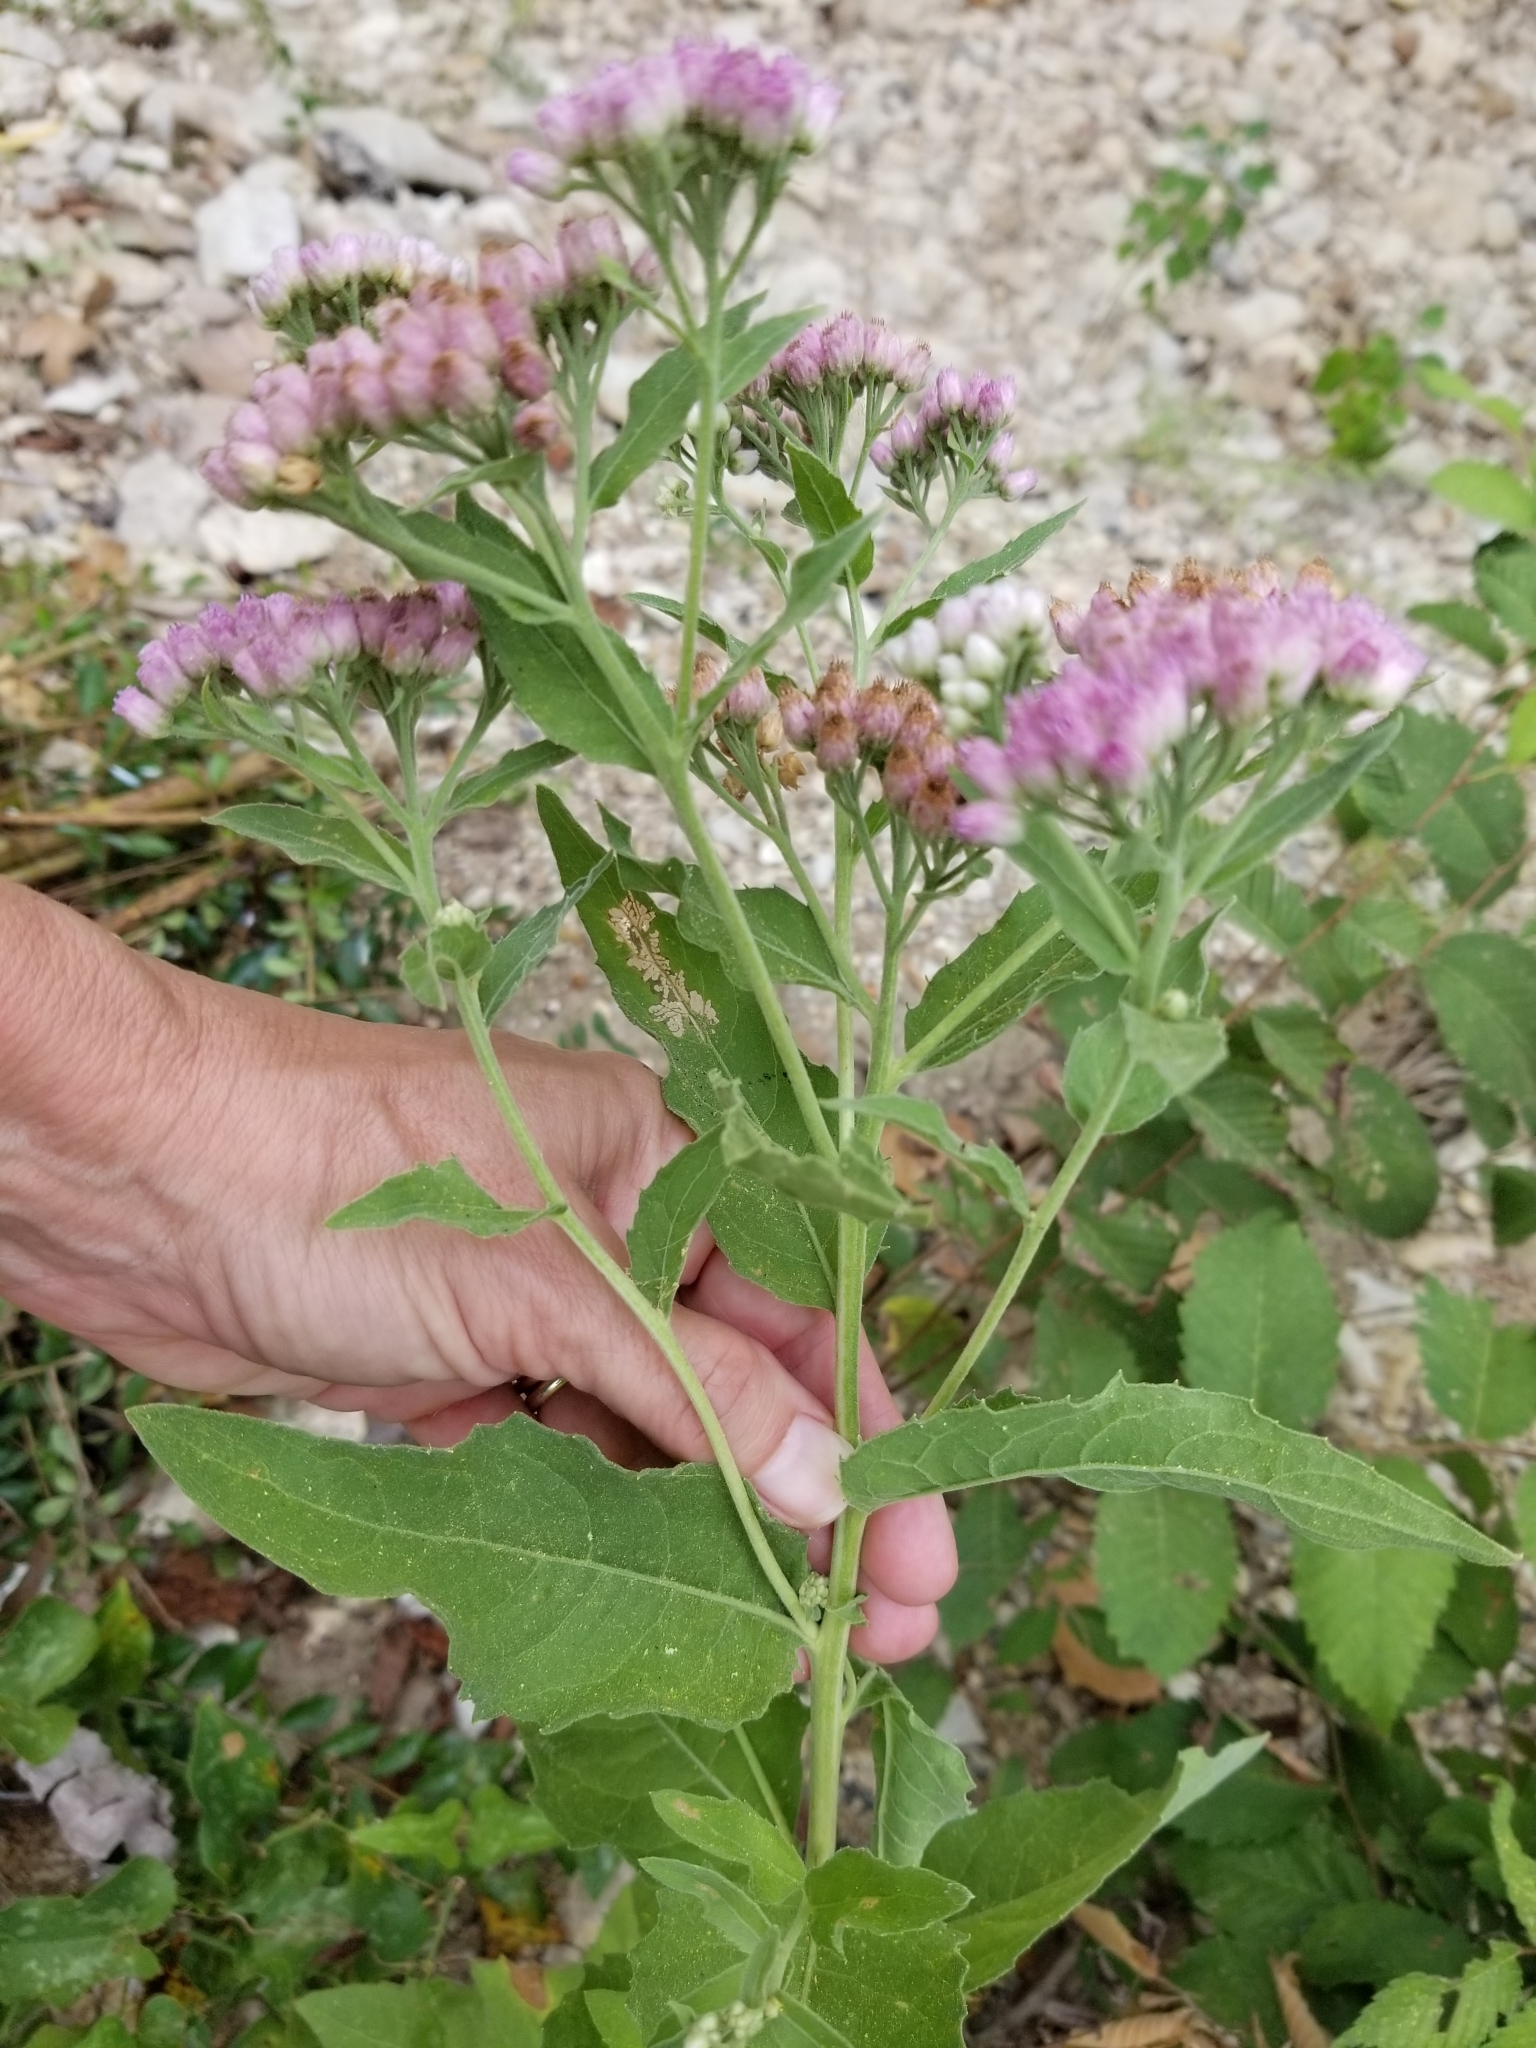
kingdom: Plantae
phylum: Tracheophyta
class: Magnoliopsida
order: Asterales
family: Asteraceae
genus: Pluchea
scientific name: Pluchea odorata
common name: Saltmarsh fleabane
